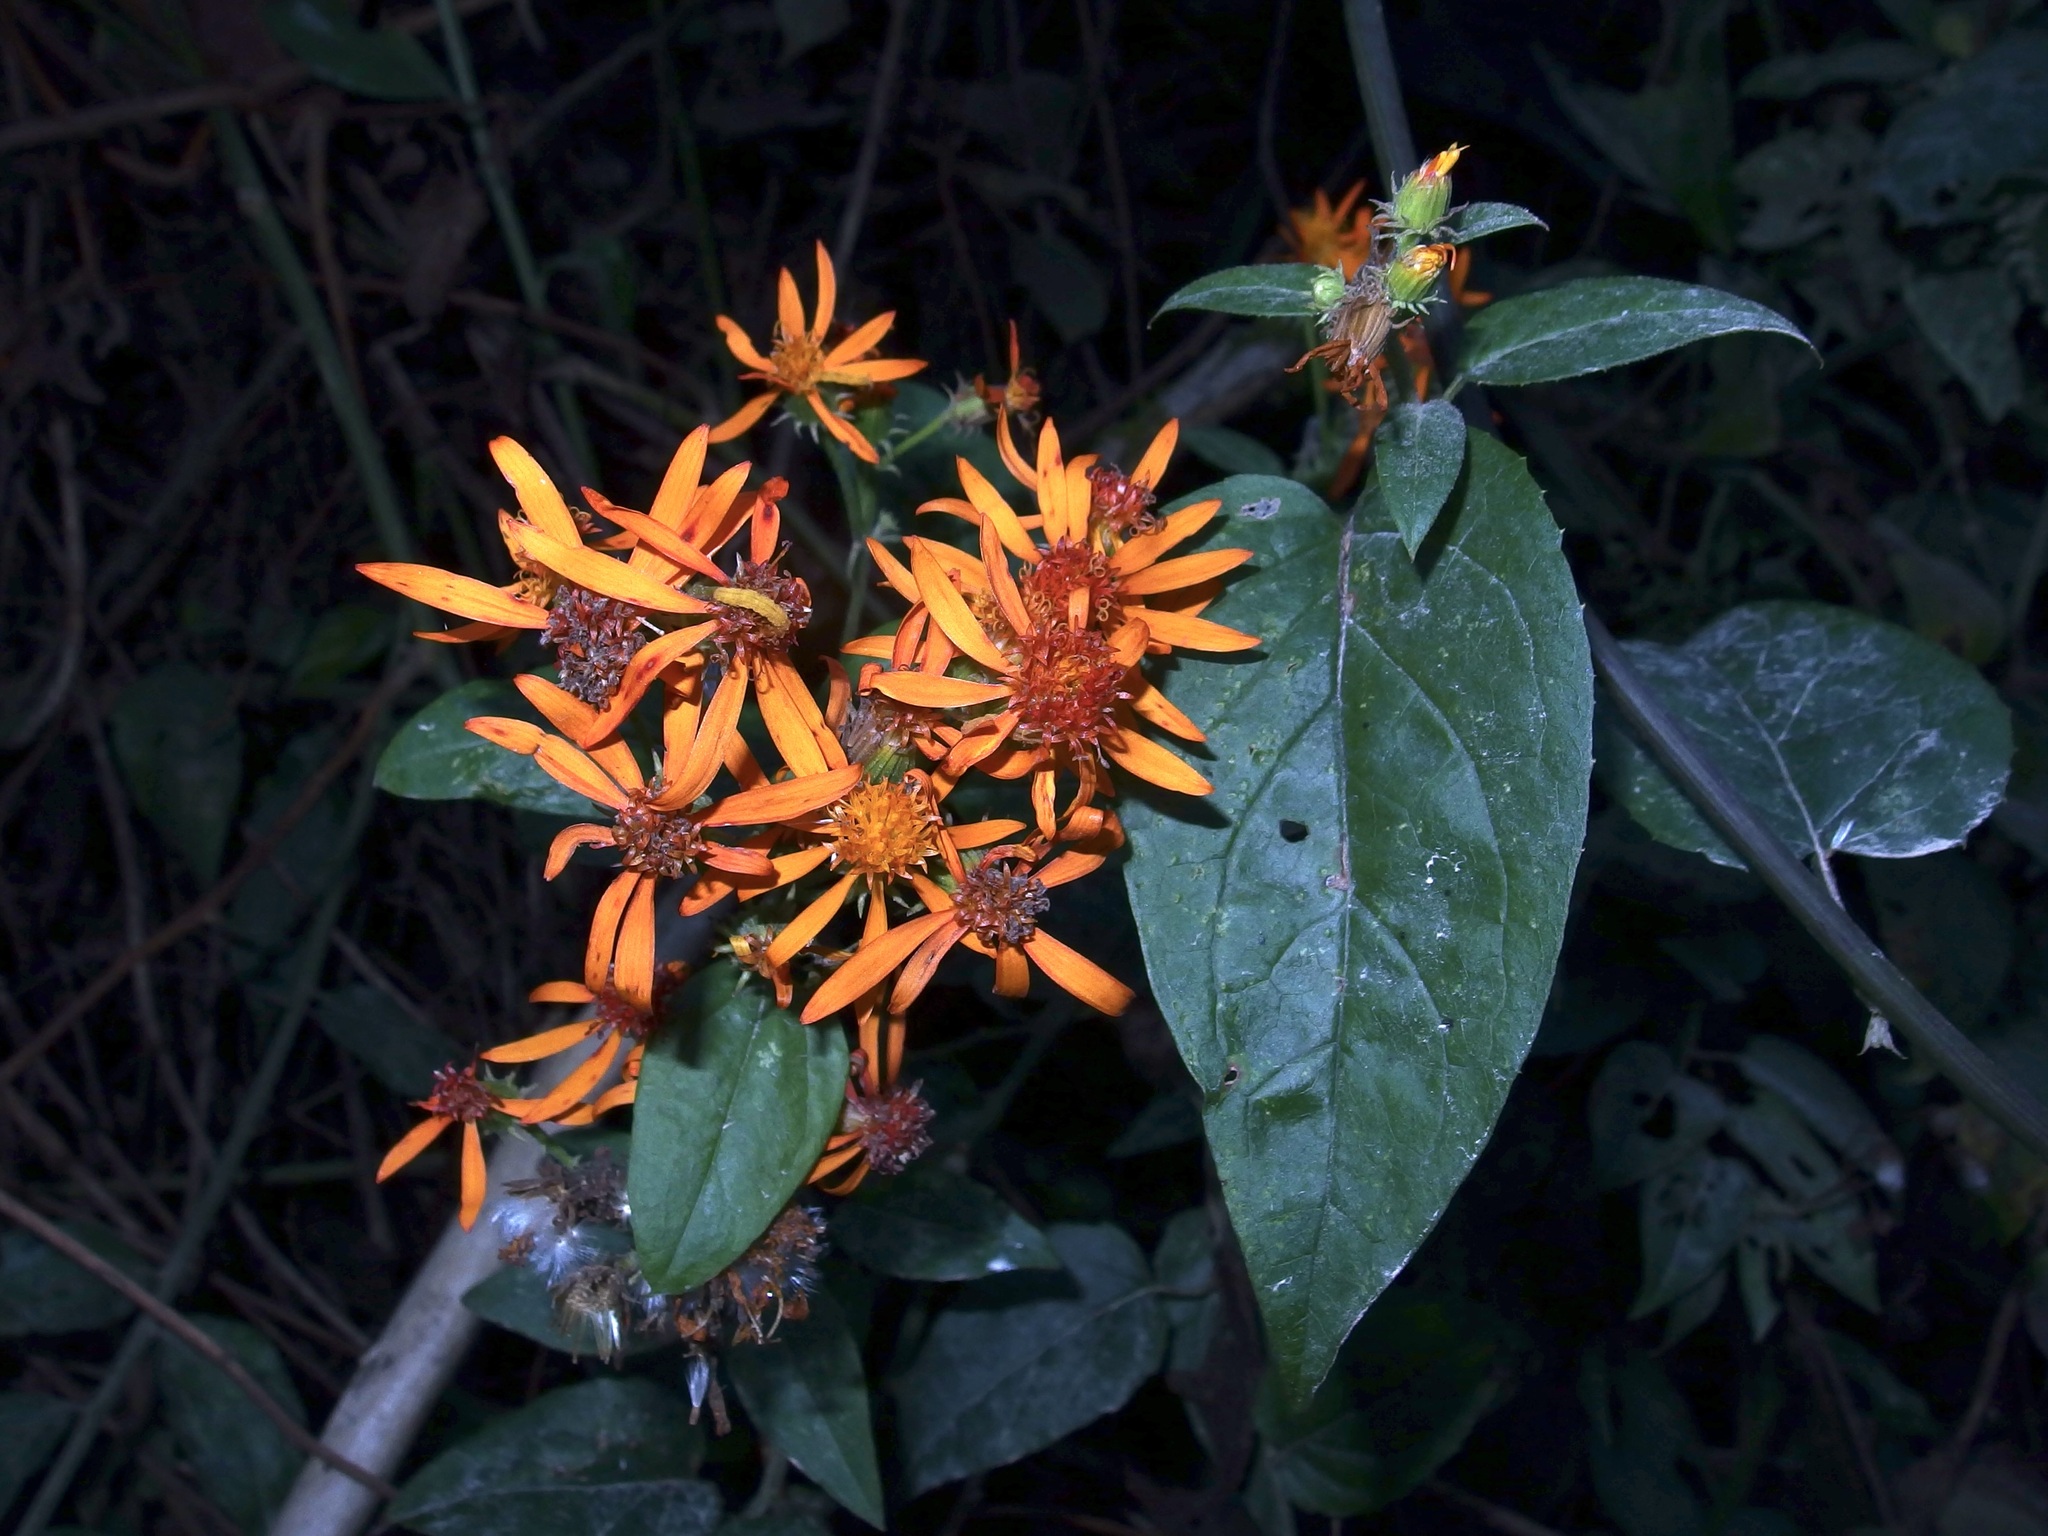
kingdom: Plantae
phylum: Tracheophyta
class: Magnoliopsida
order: Asterales
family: Asteraceae
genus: Pseudogynoxys
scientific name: Pseudogynoxys chenopodioides
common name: Mexican flamevine
